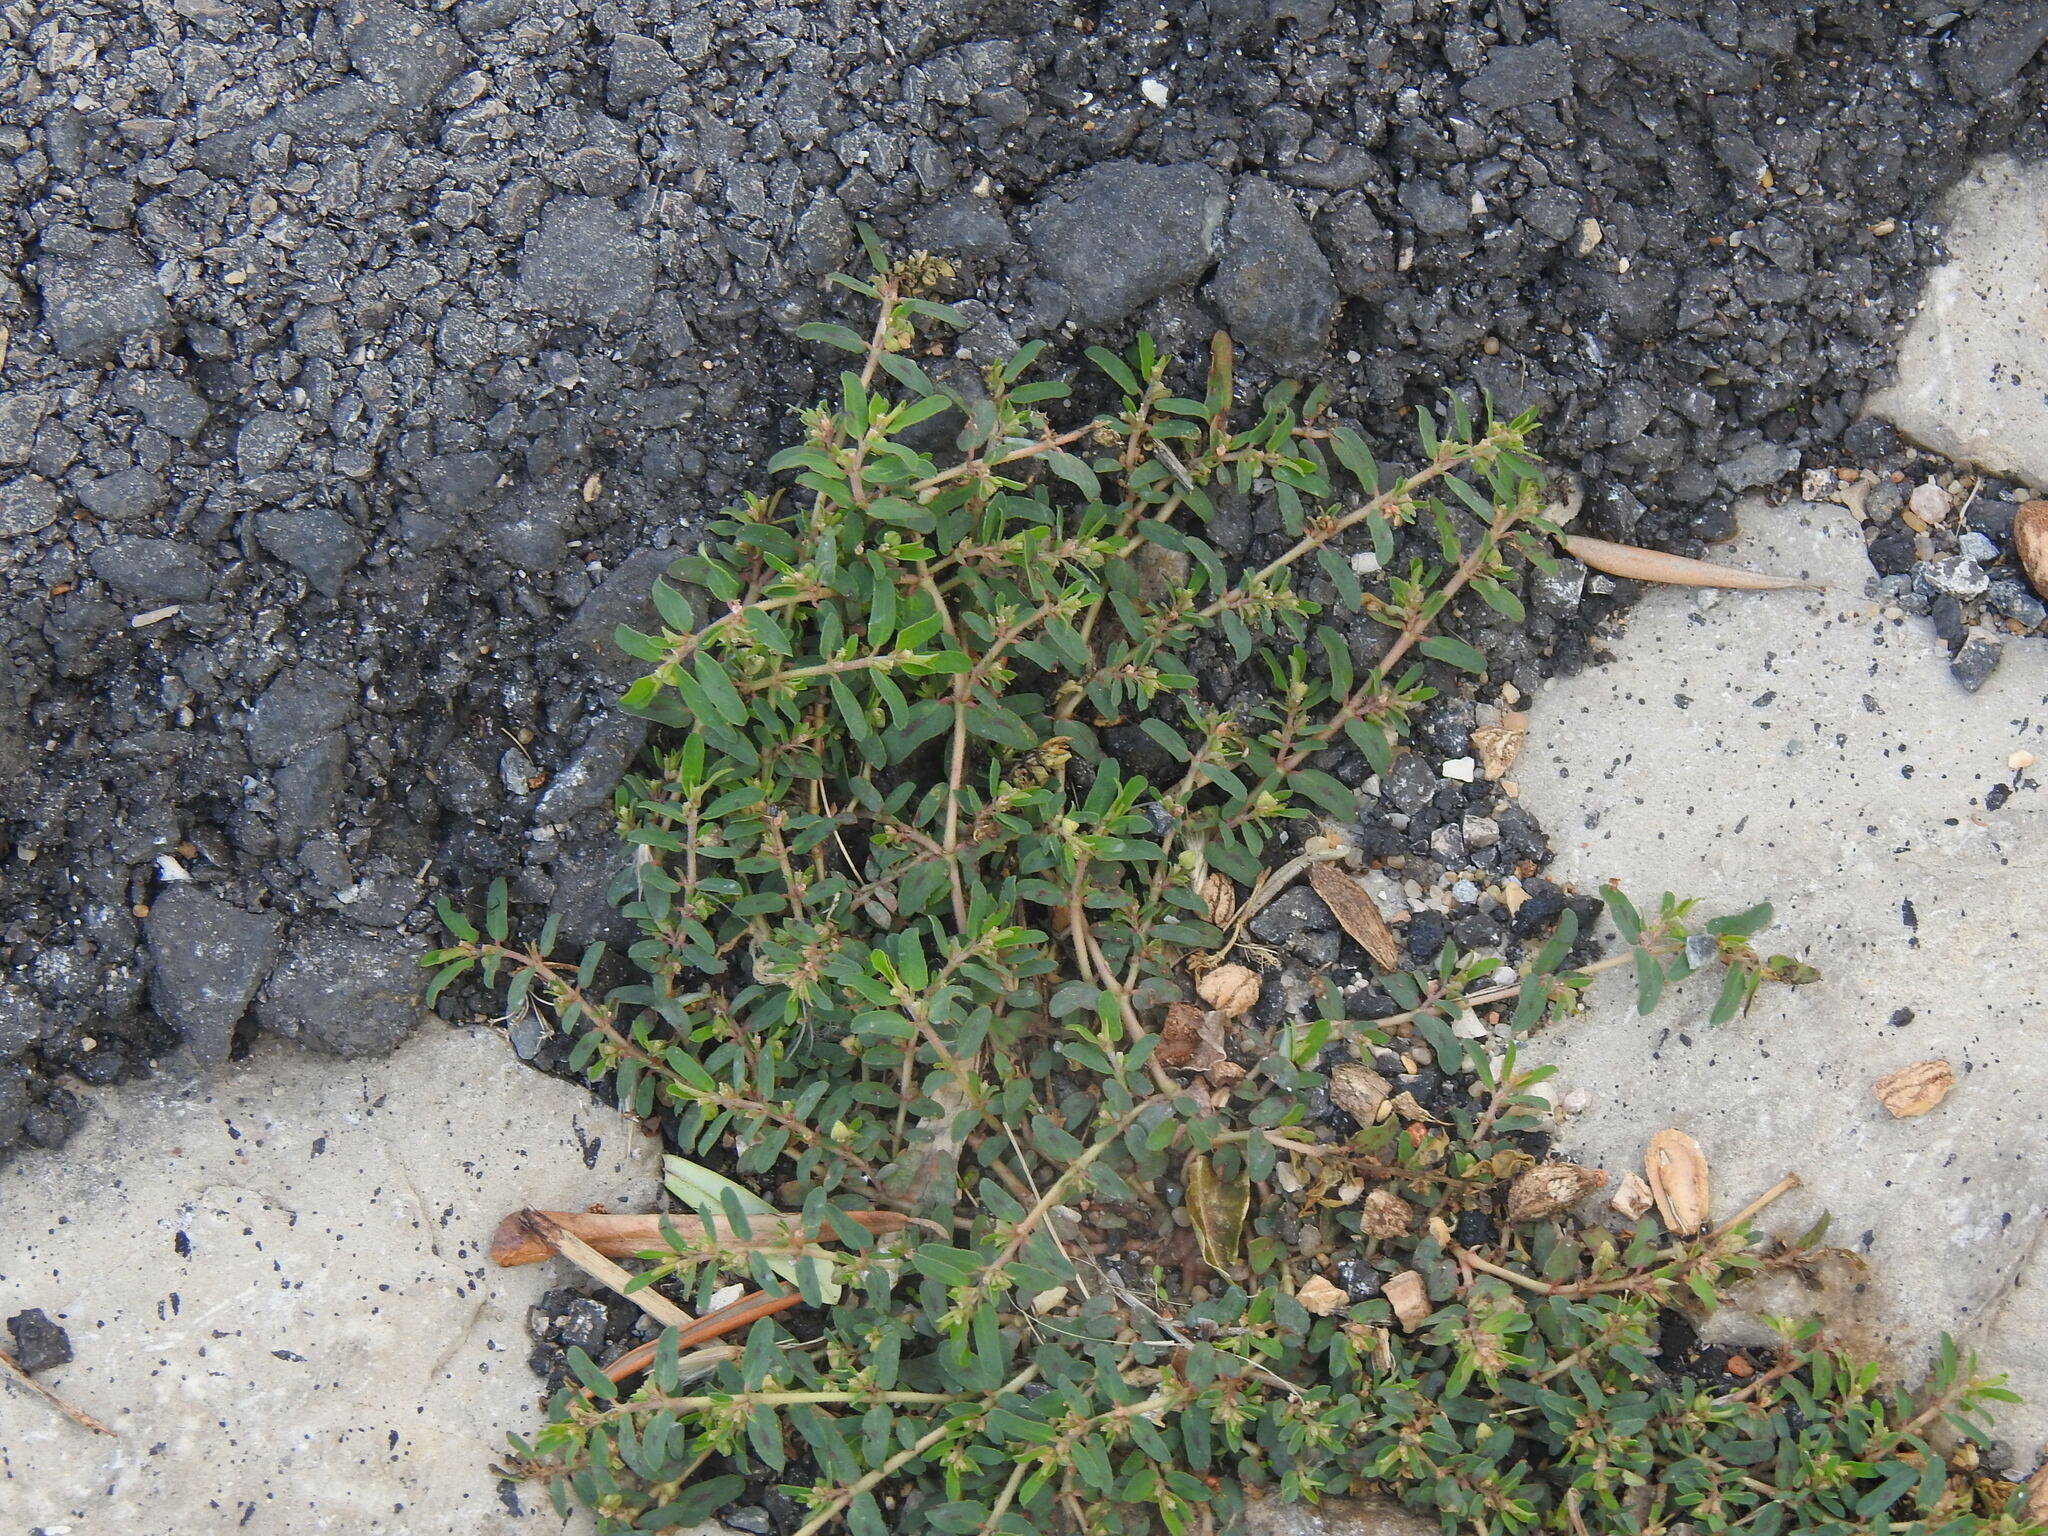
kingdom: Plantae
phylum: Tracheophyta
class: Magnoliopsida
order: Malpighiales
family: Euphorbiaceae
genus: Euphorbia
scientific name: Euphorbia maculata
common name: Spotted spurge
